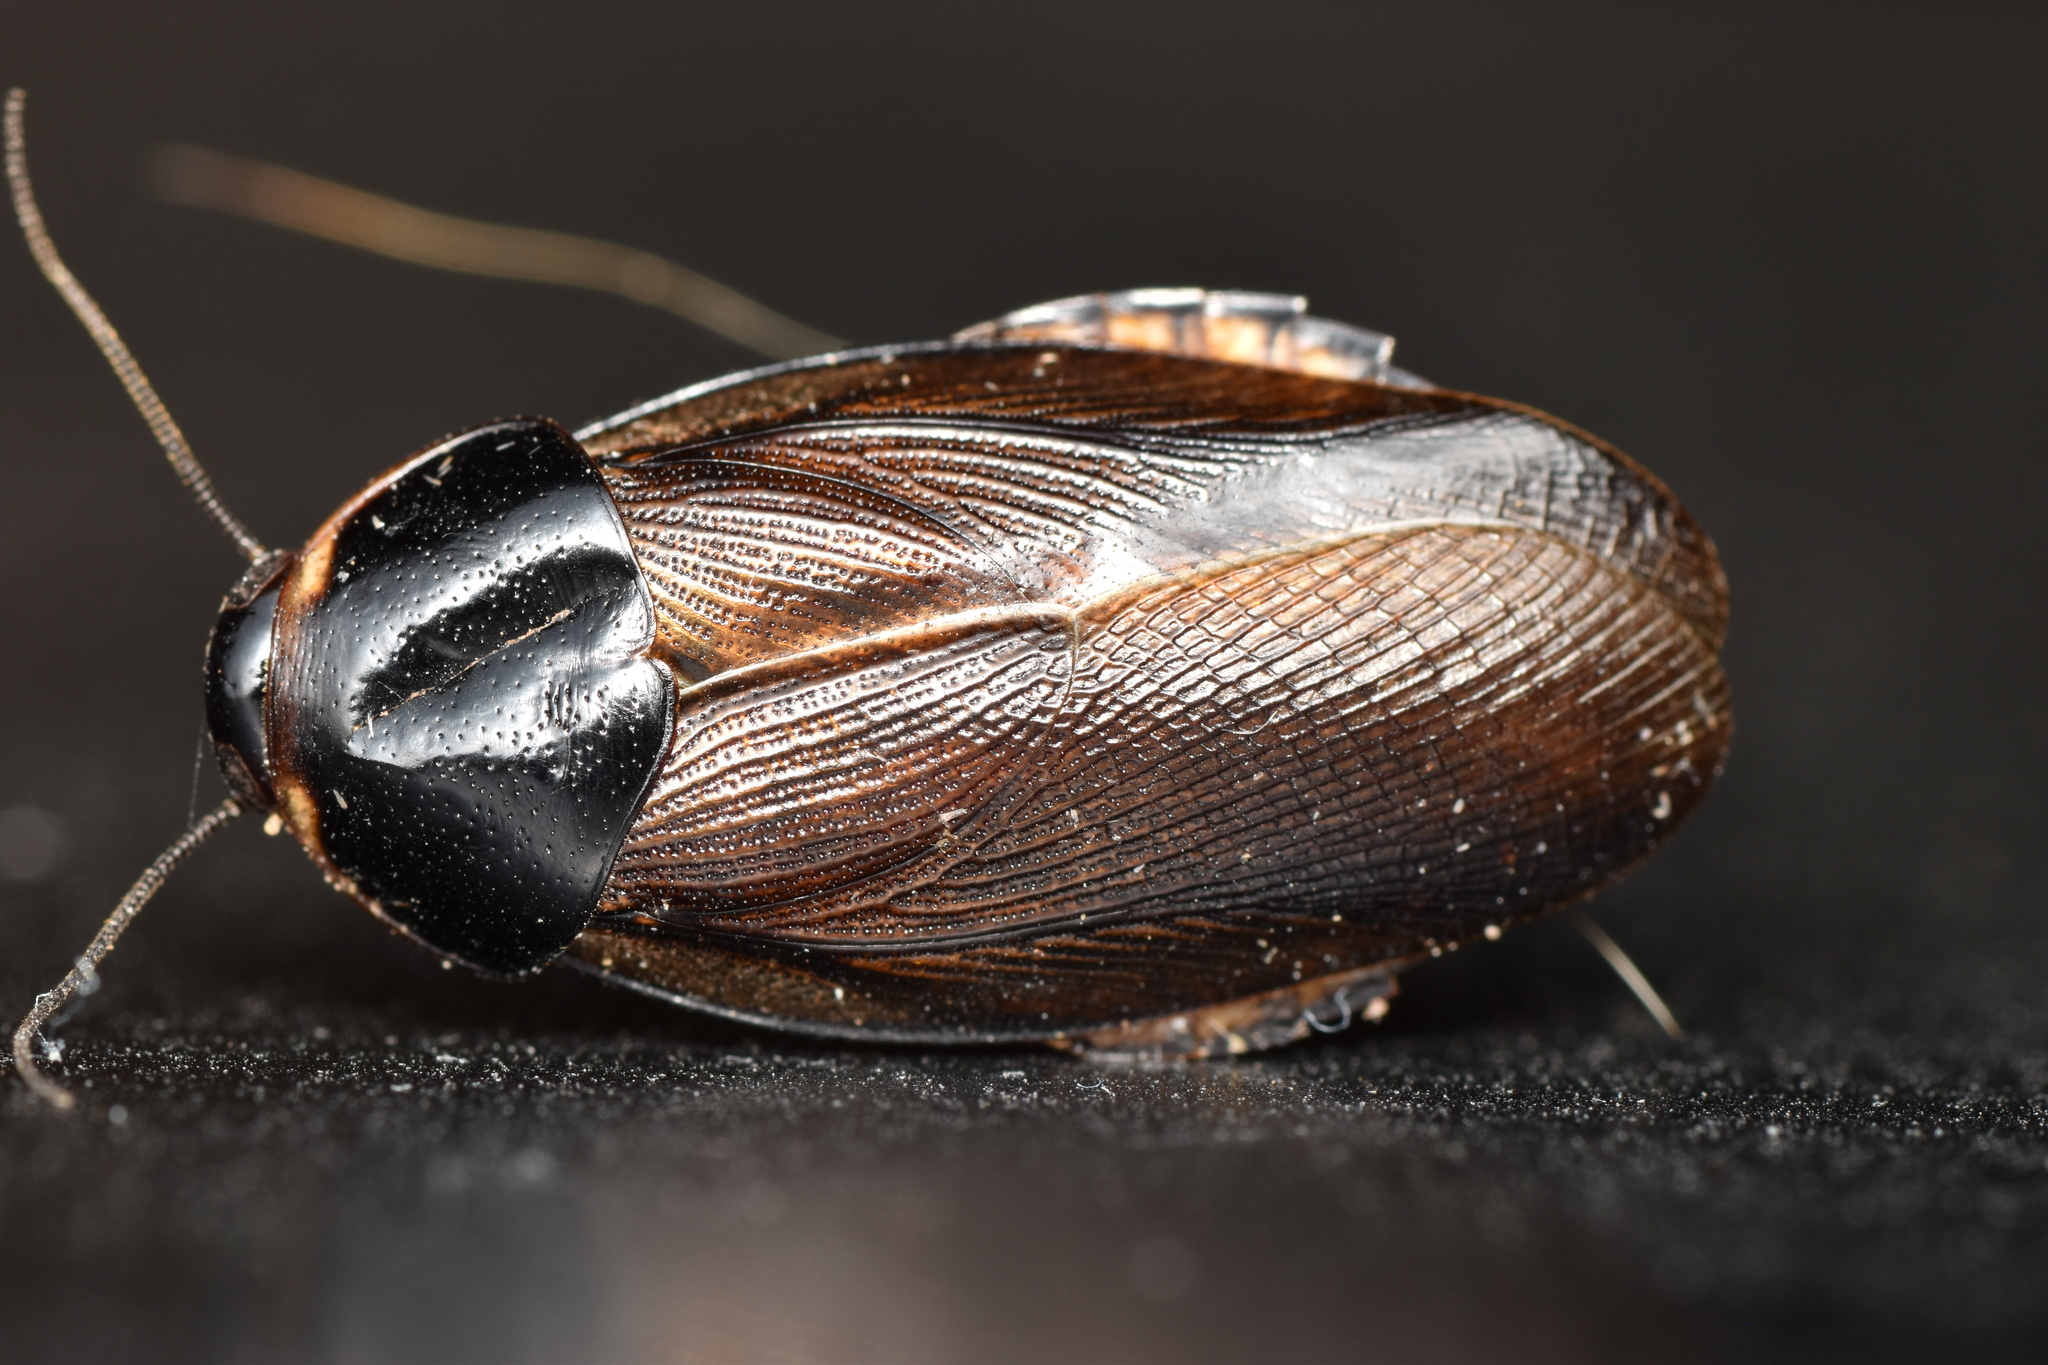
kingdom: Animalia
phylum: Arthropoda
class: Insecta
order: Blattodea
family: Blaberidae
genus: Pycnoscelus
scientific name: Pycnoscelus surinamensis
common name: Surinam cockroach
